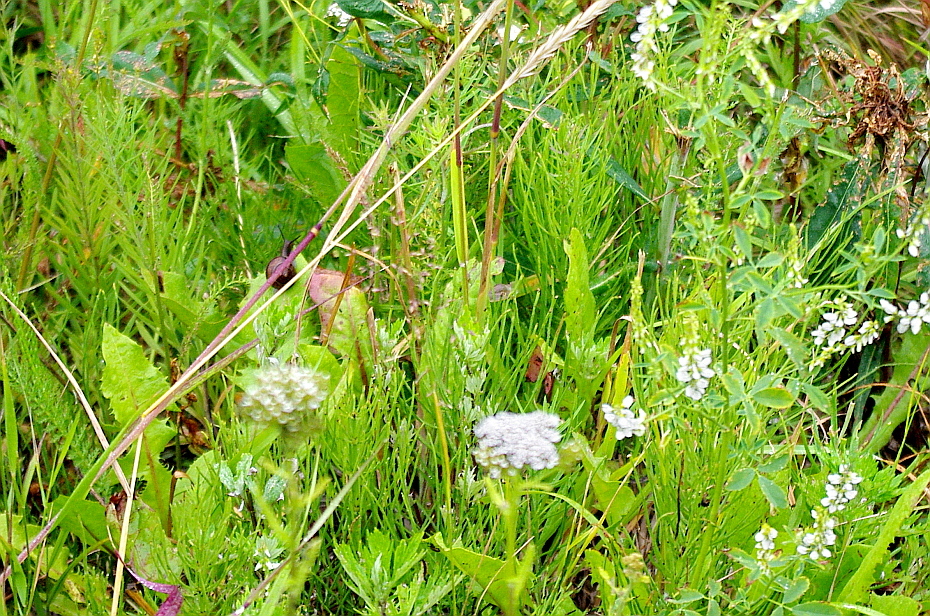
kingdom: Plantae
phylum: Tracheophyta
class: Polypodiopsida
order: Equisetales
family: Equisetaceae
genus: Equisetum
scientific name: Equisetum arvense
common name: Field horsetail
